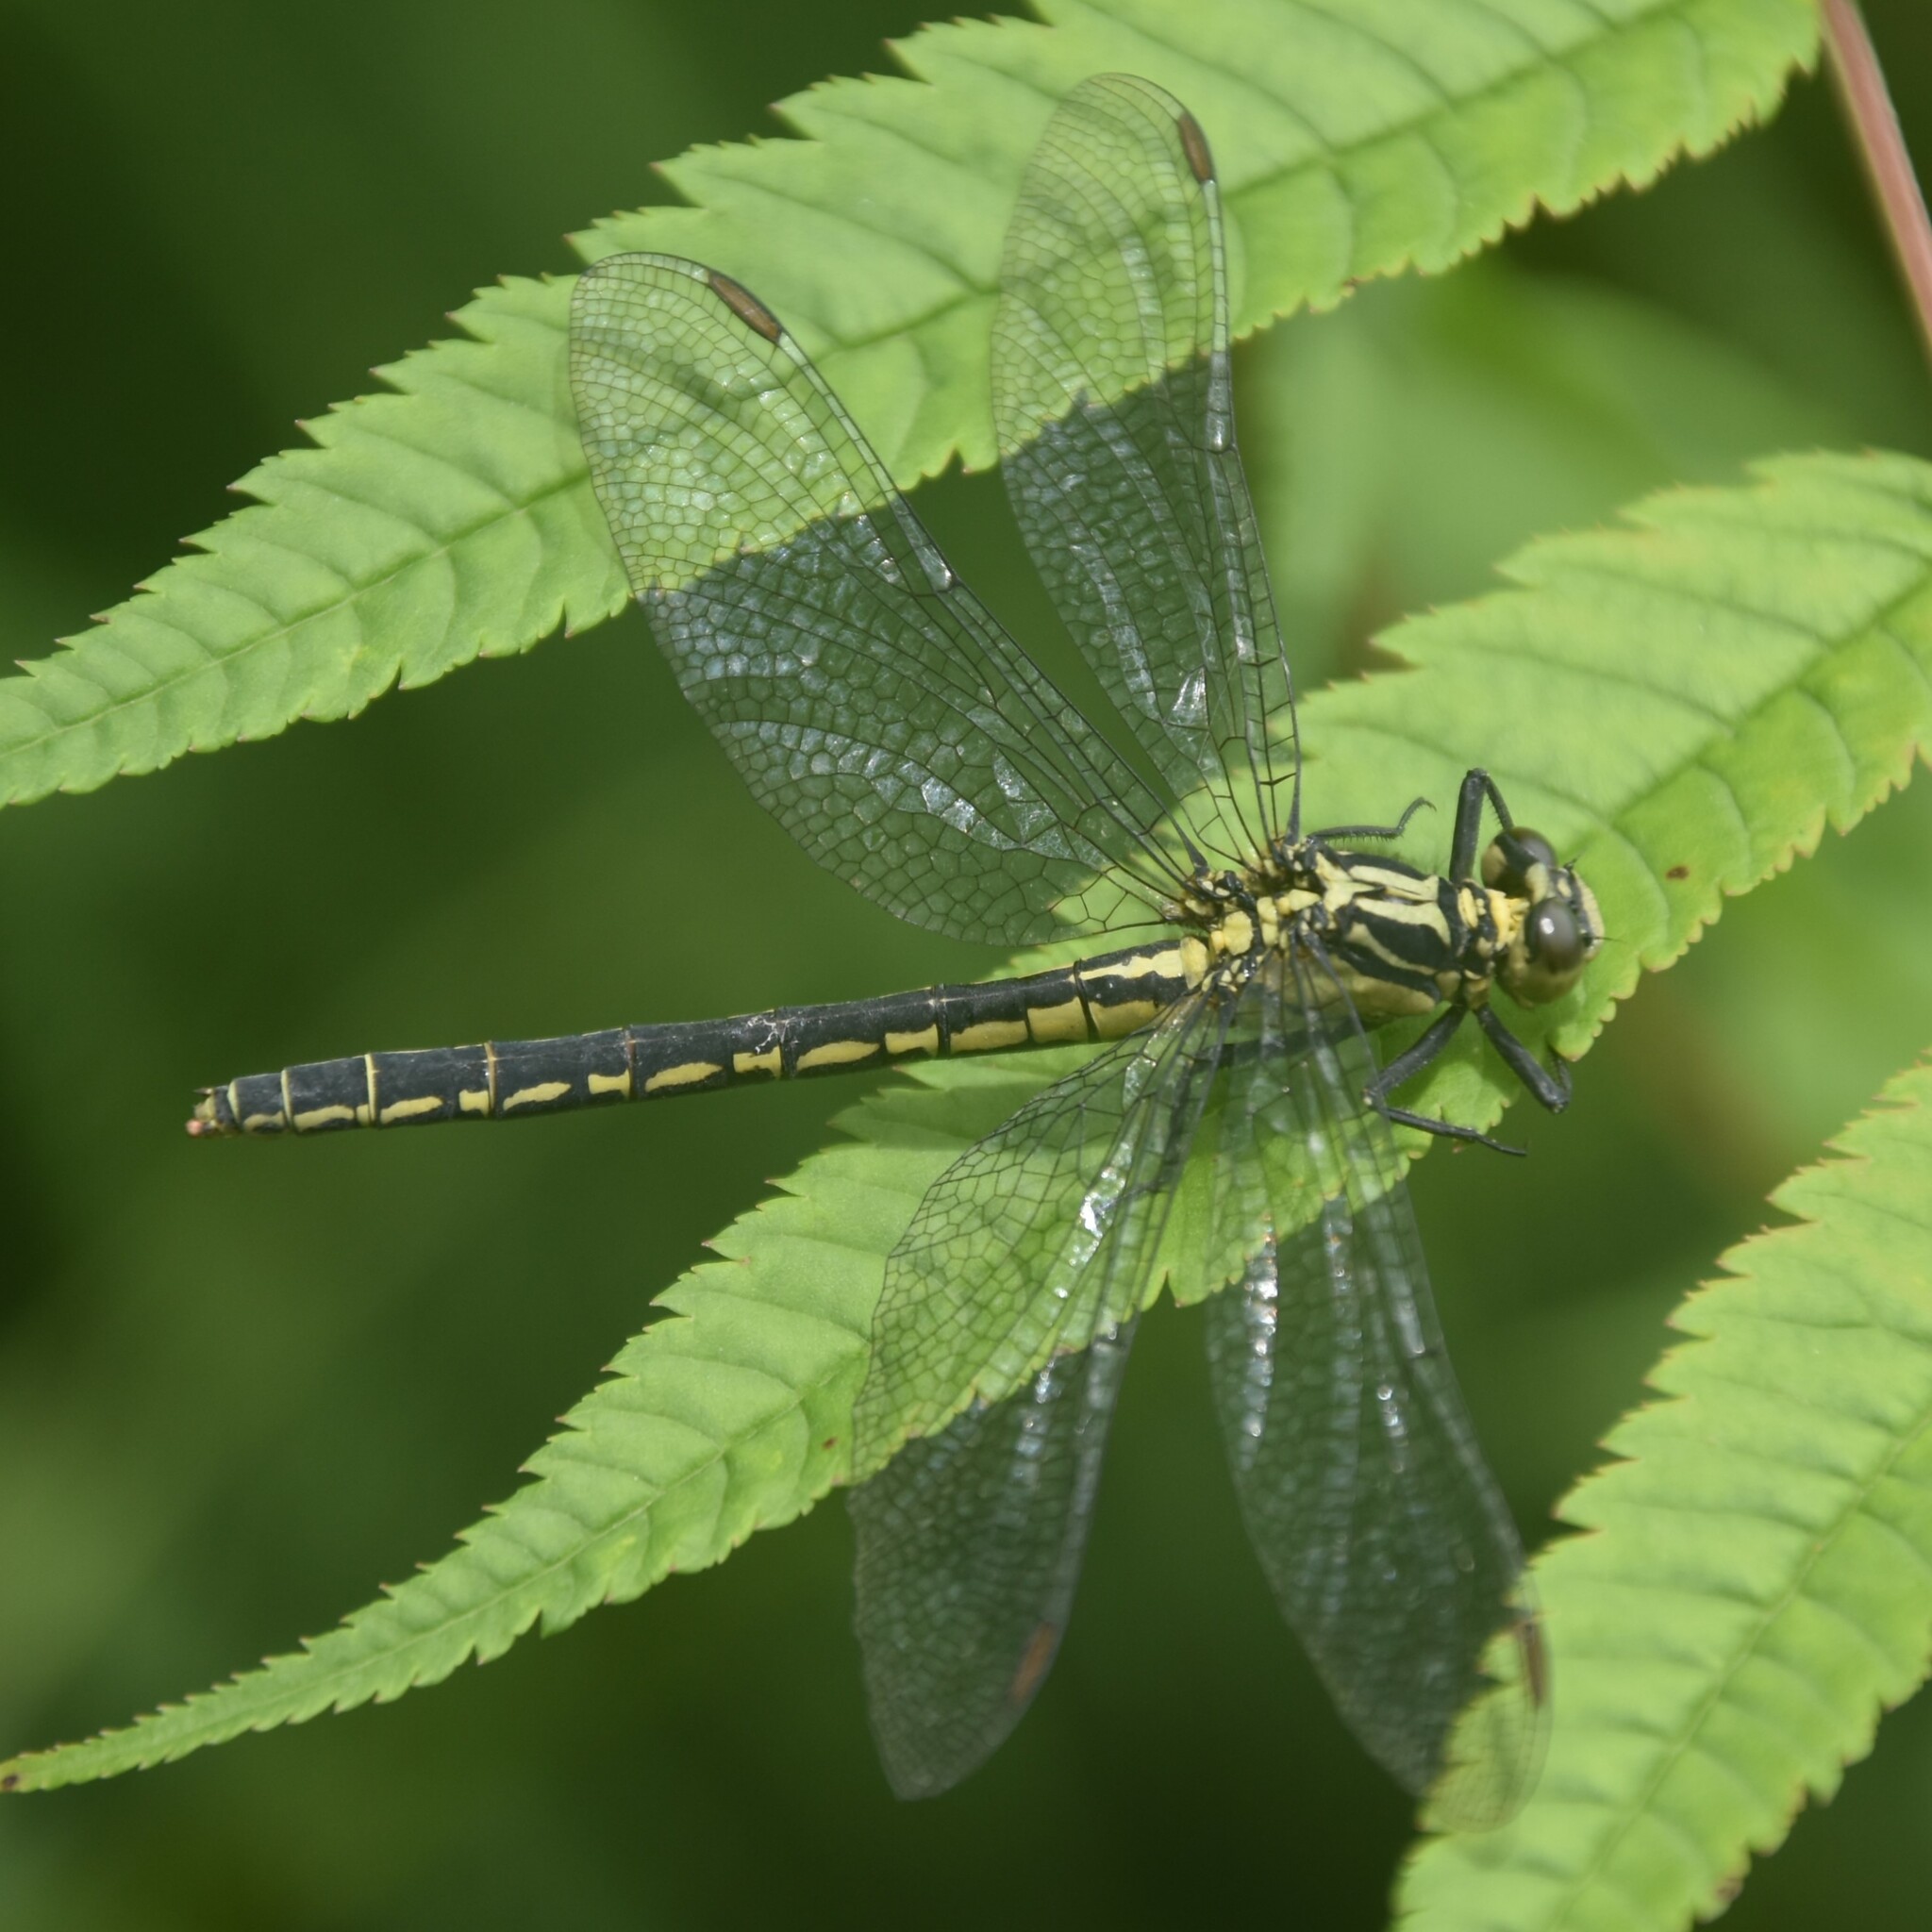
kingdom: Animalia
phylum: Arthropoda
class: Insecta
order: Odonata
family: Gomphidae
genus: Davidius
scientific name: Davidius aberrans
